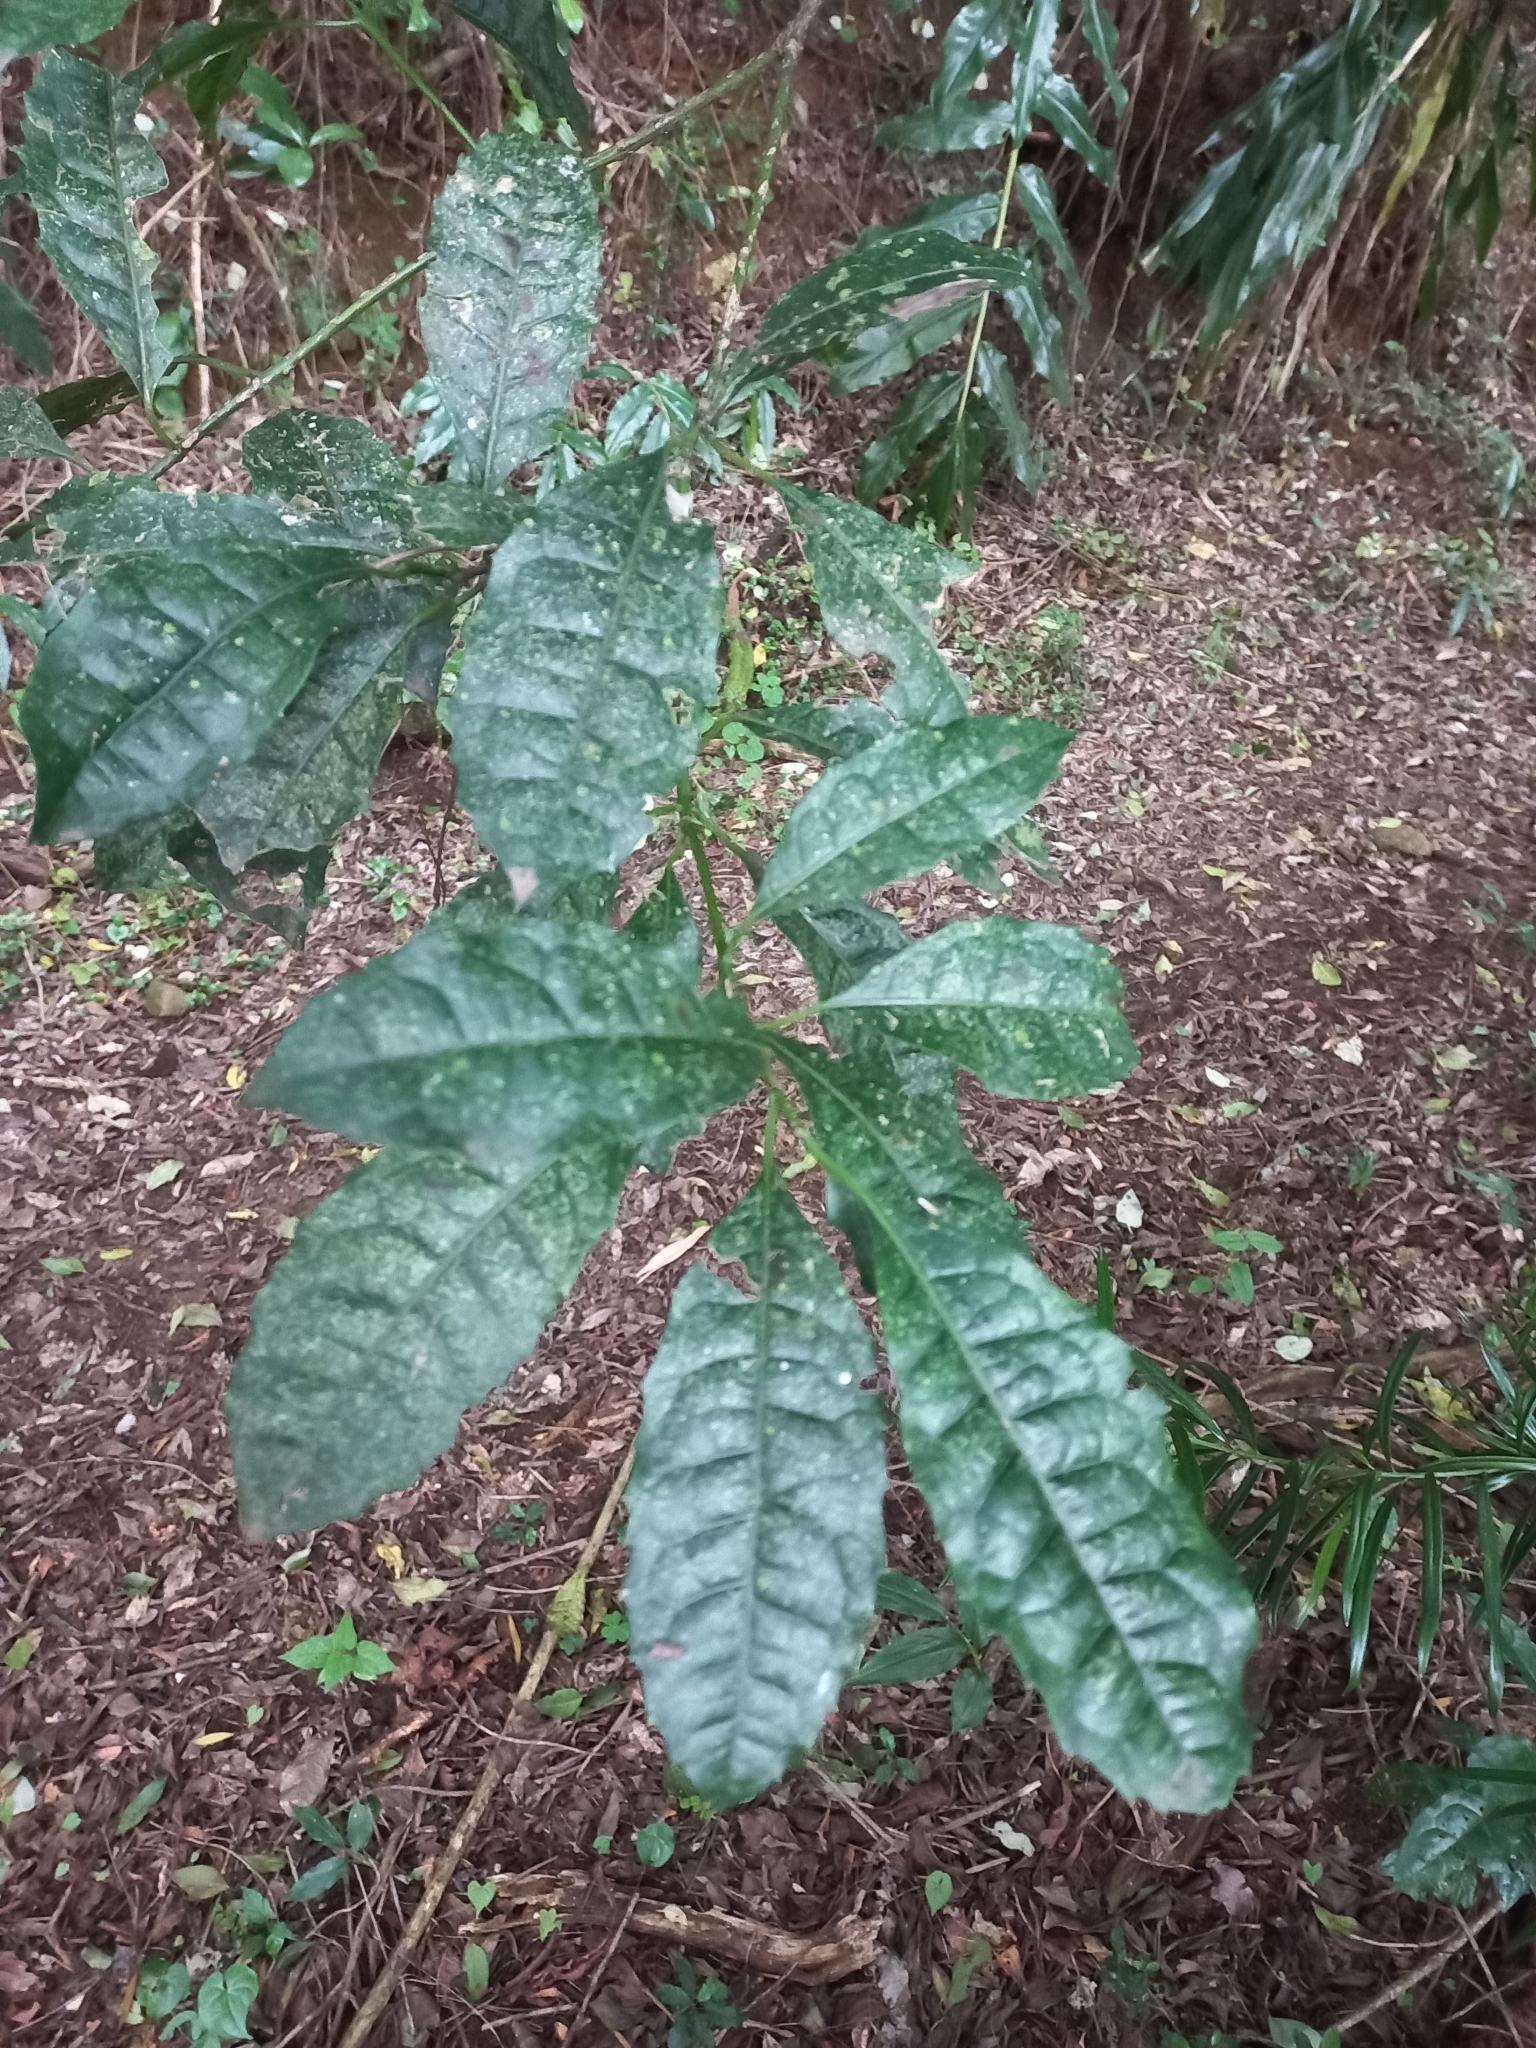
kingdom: Plantae
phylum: Tracheophyta
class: Magnoliopsida
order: Laurales
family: Monimiaceae
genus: Xymalos
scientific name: Xymalos monospora
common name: Lemonwood
